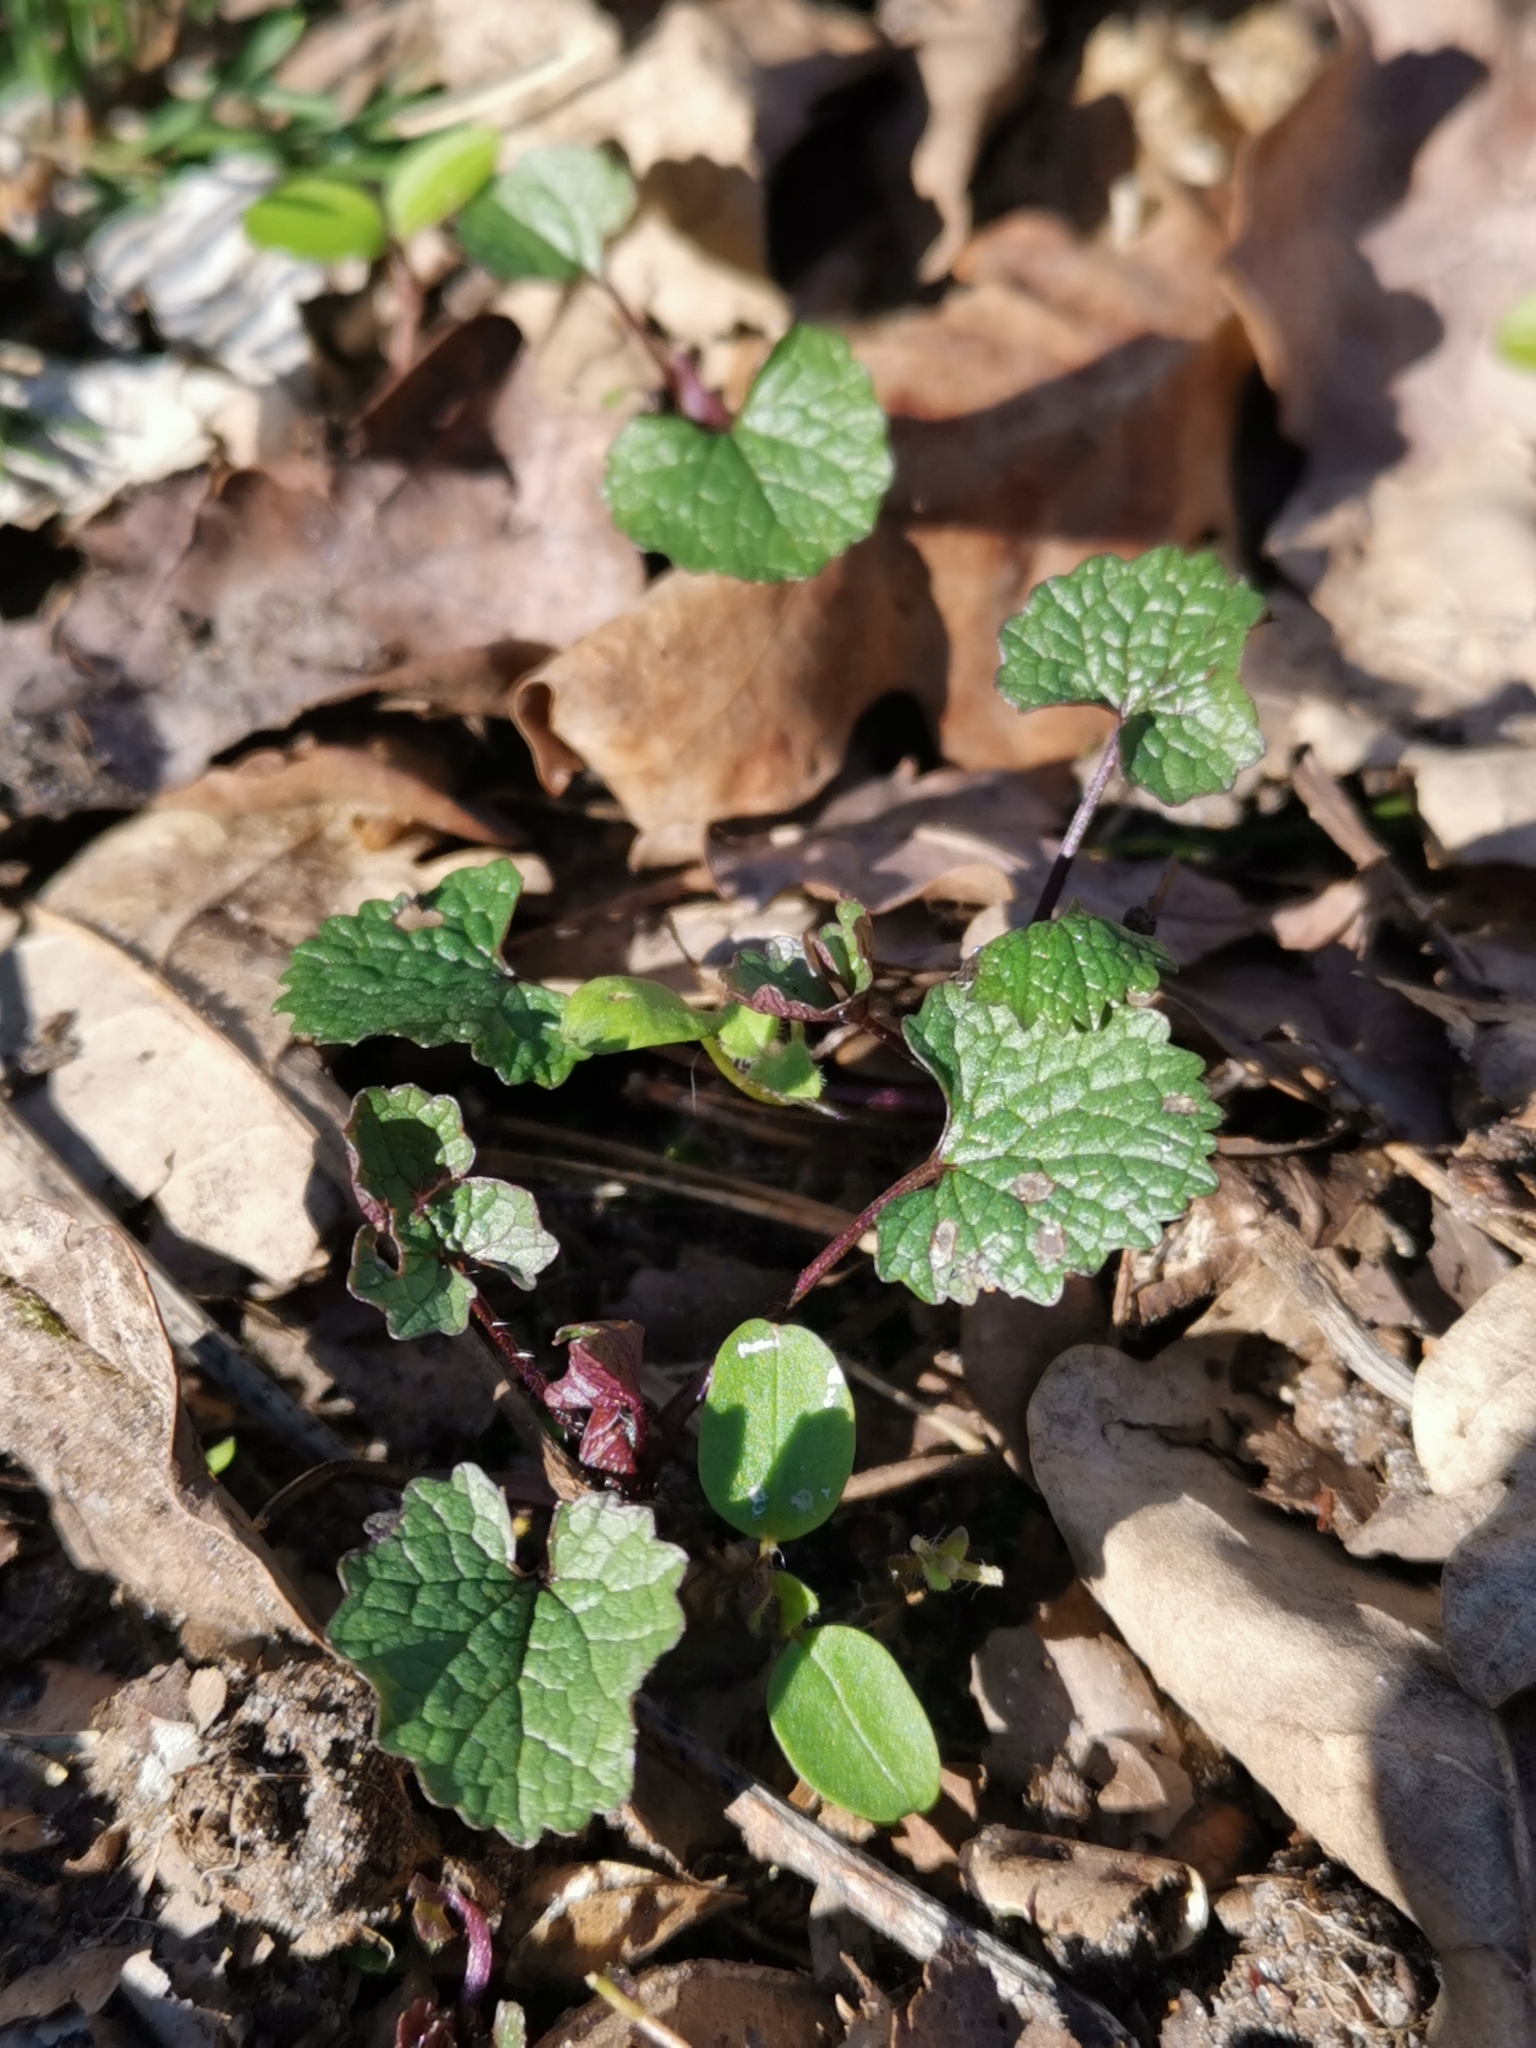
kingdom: Plantae
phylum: Tracheophyta
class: Magnoliopsida
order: Brassicales
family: Brassicaceae
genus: Alliaria
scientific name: Alliaria petiolata
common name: Garlic mustard
